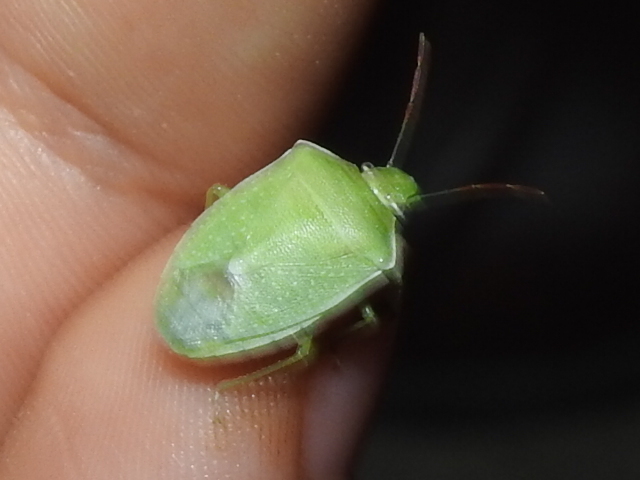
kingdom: Animalia
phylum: Arthropoda
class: Insecta
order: Hemiptera
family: Pentatomidae
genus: Thyanta
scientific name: Thyanta custator
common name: Stink bug
